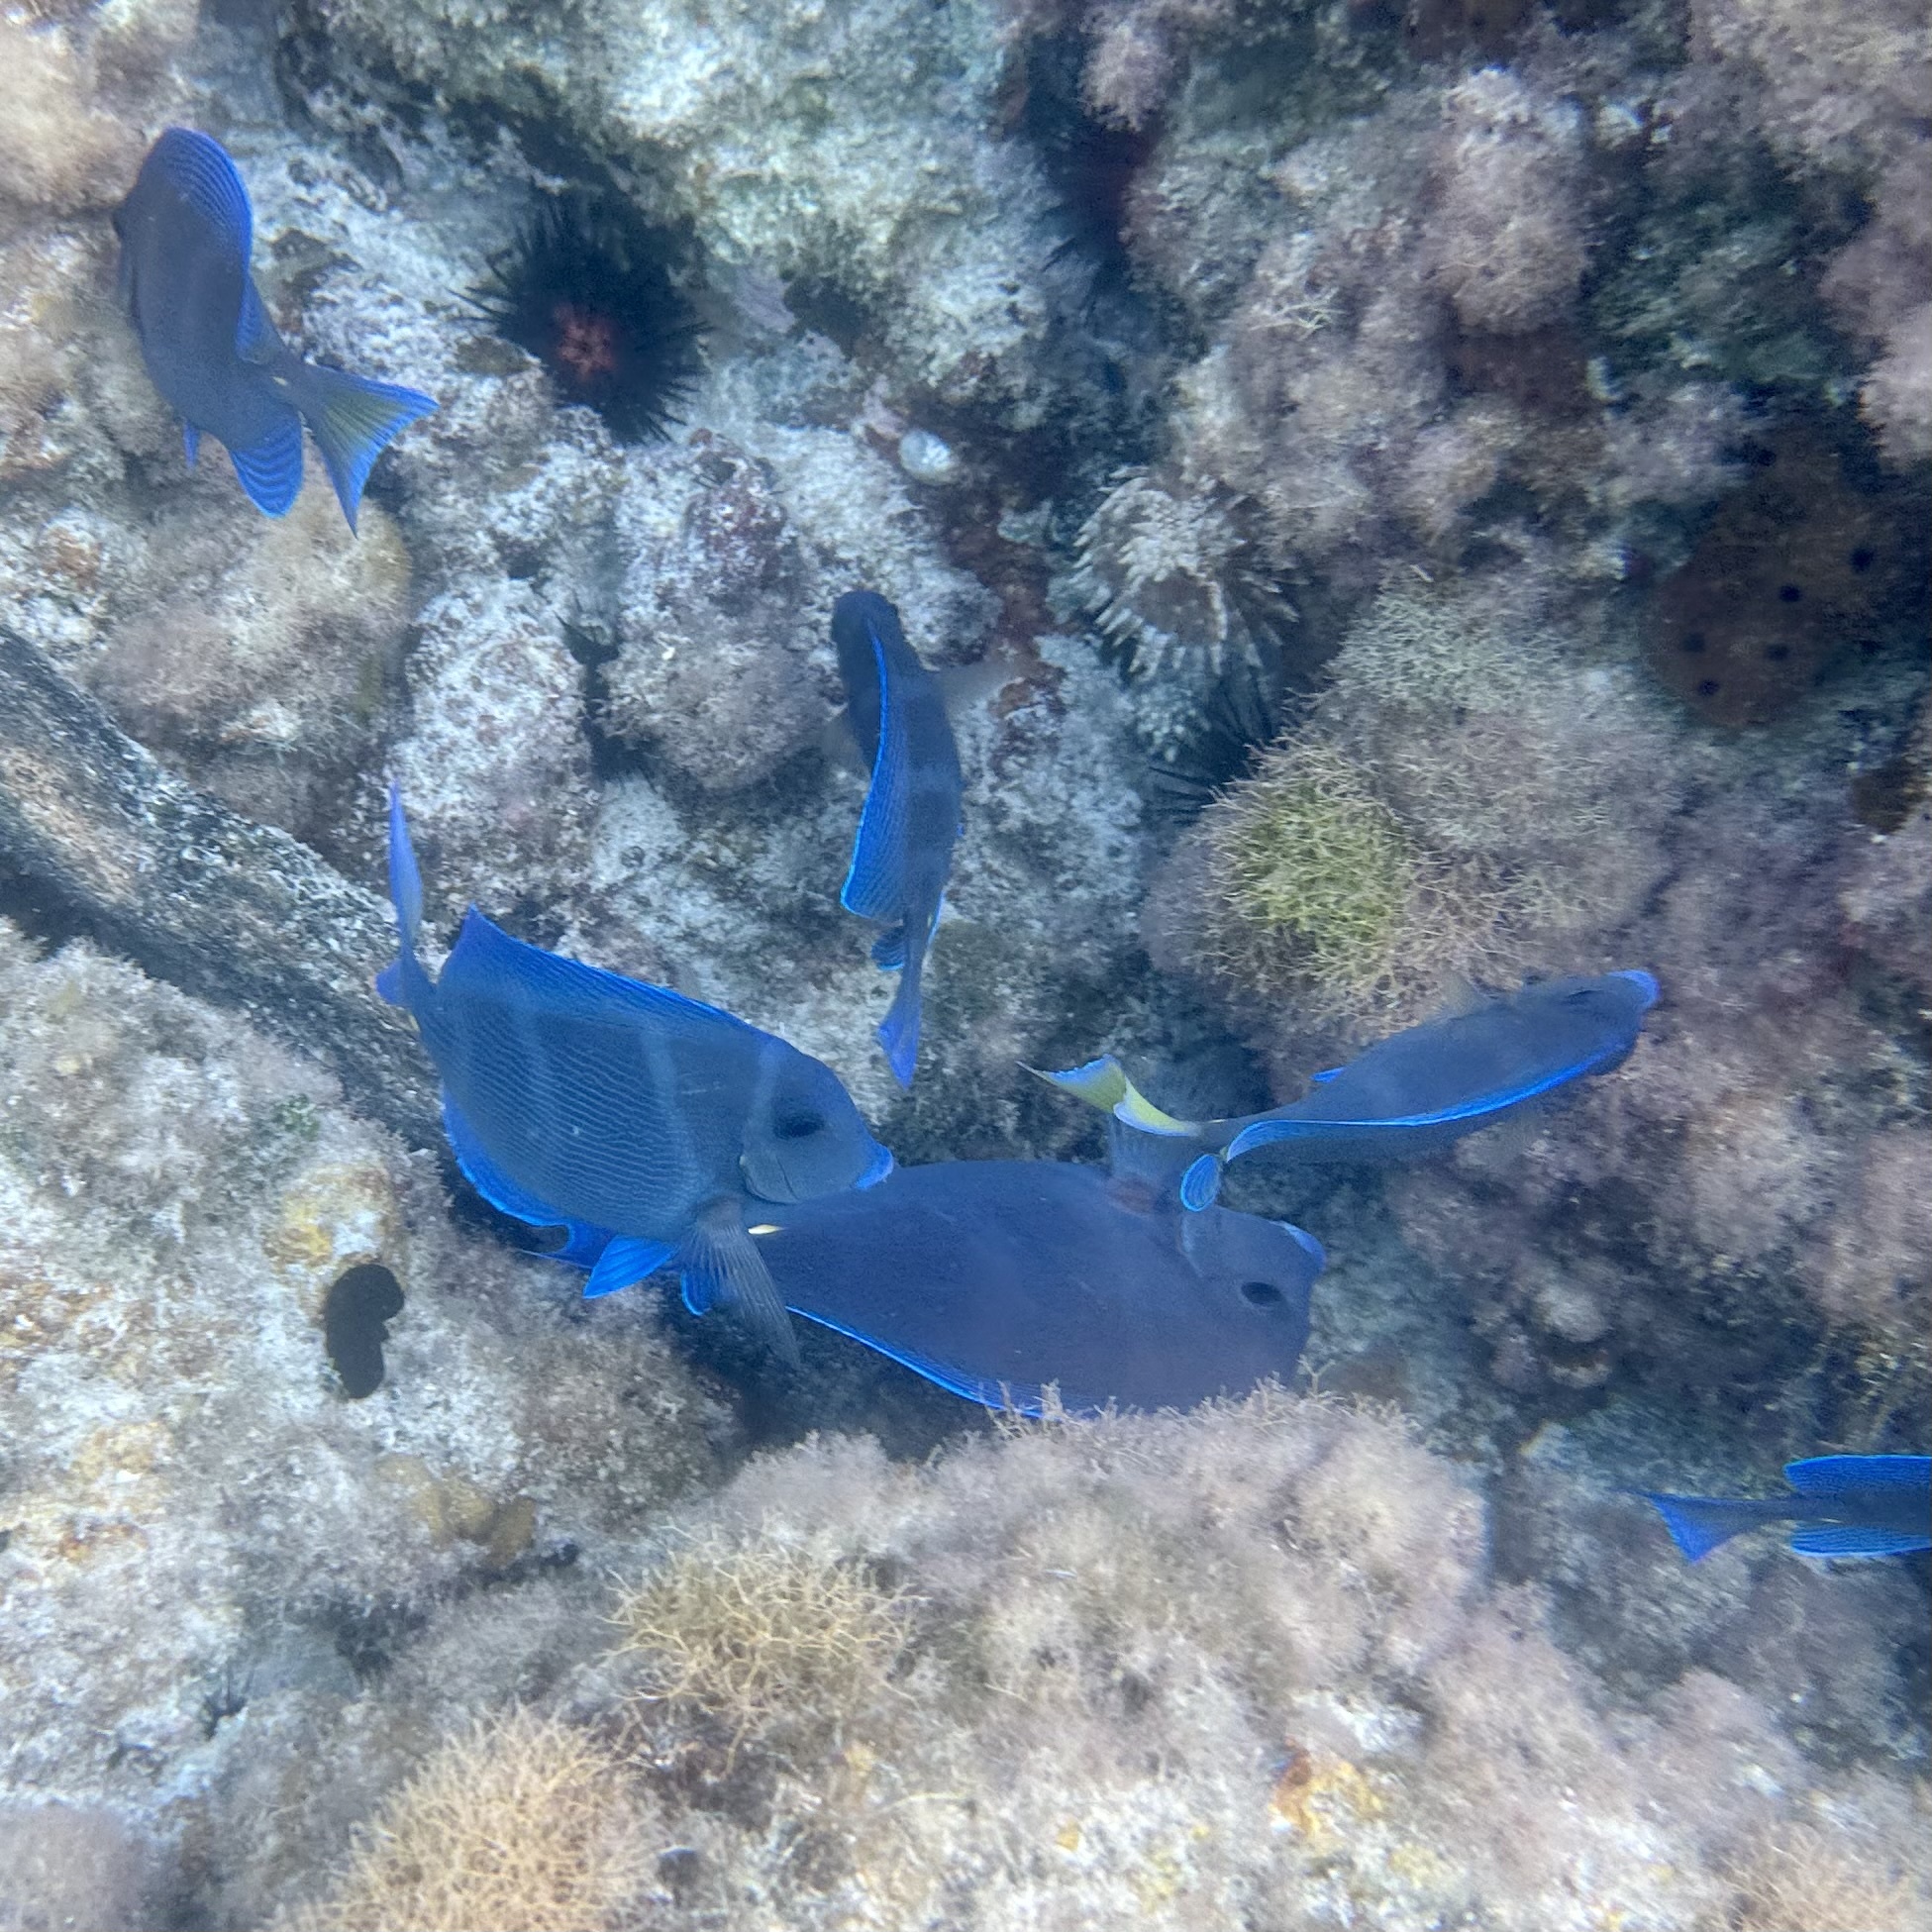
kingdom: Animalia
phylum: Chordata
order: Perciformes
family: Acanthuridae
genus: Acanthurus
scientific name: Acanthurus coeruleus
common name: Blue tang
